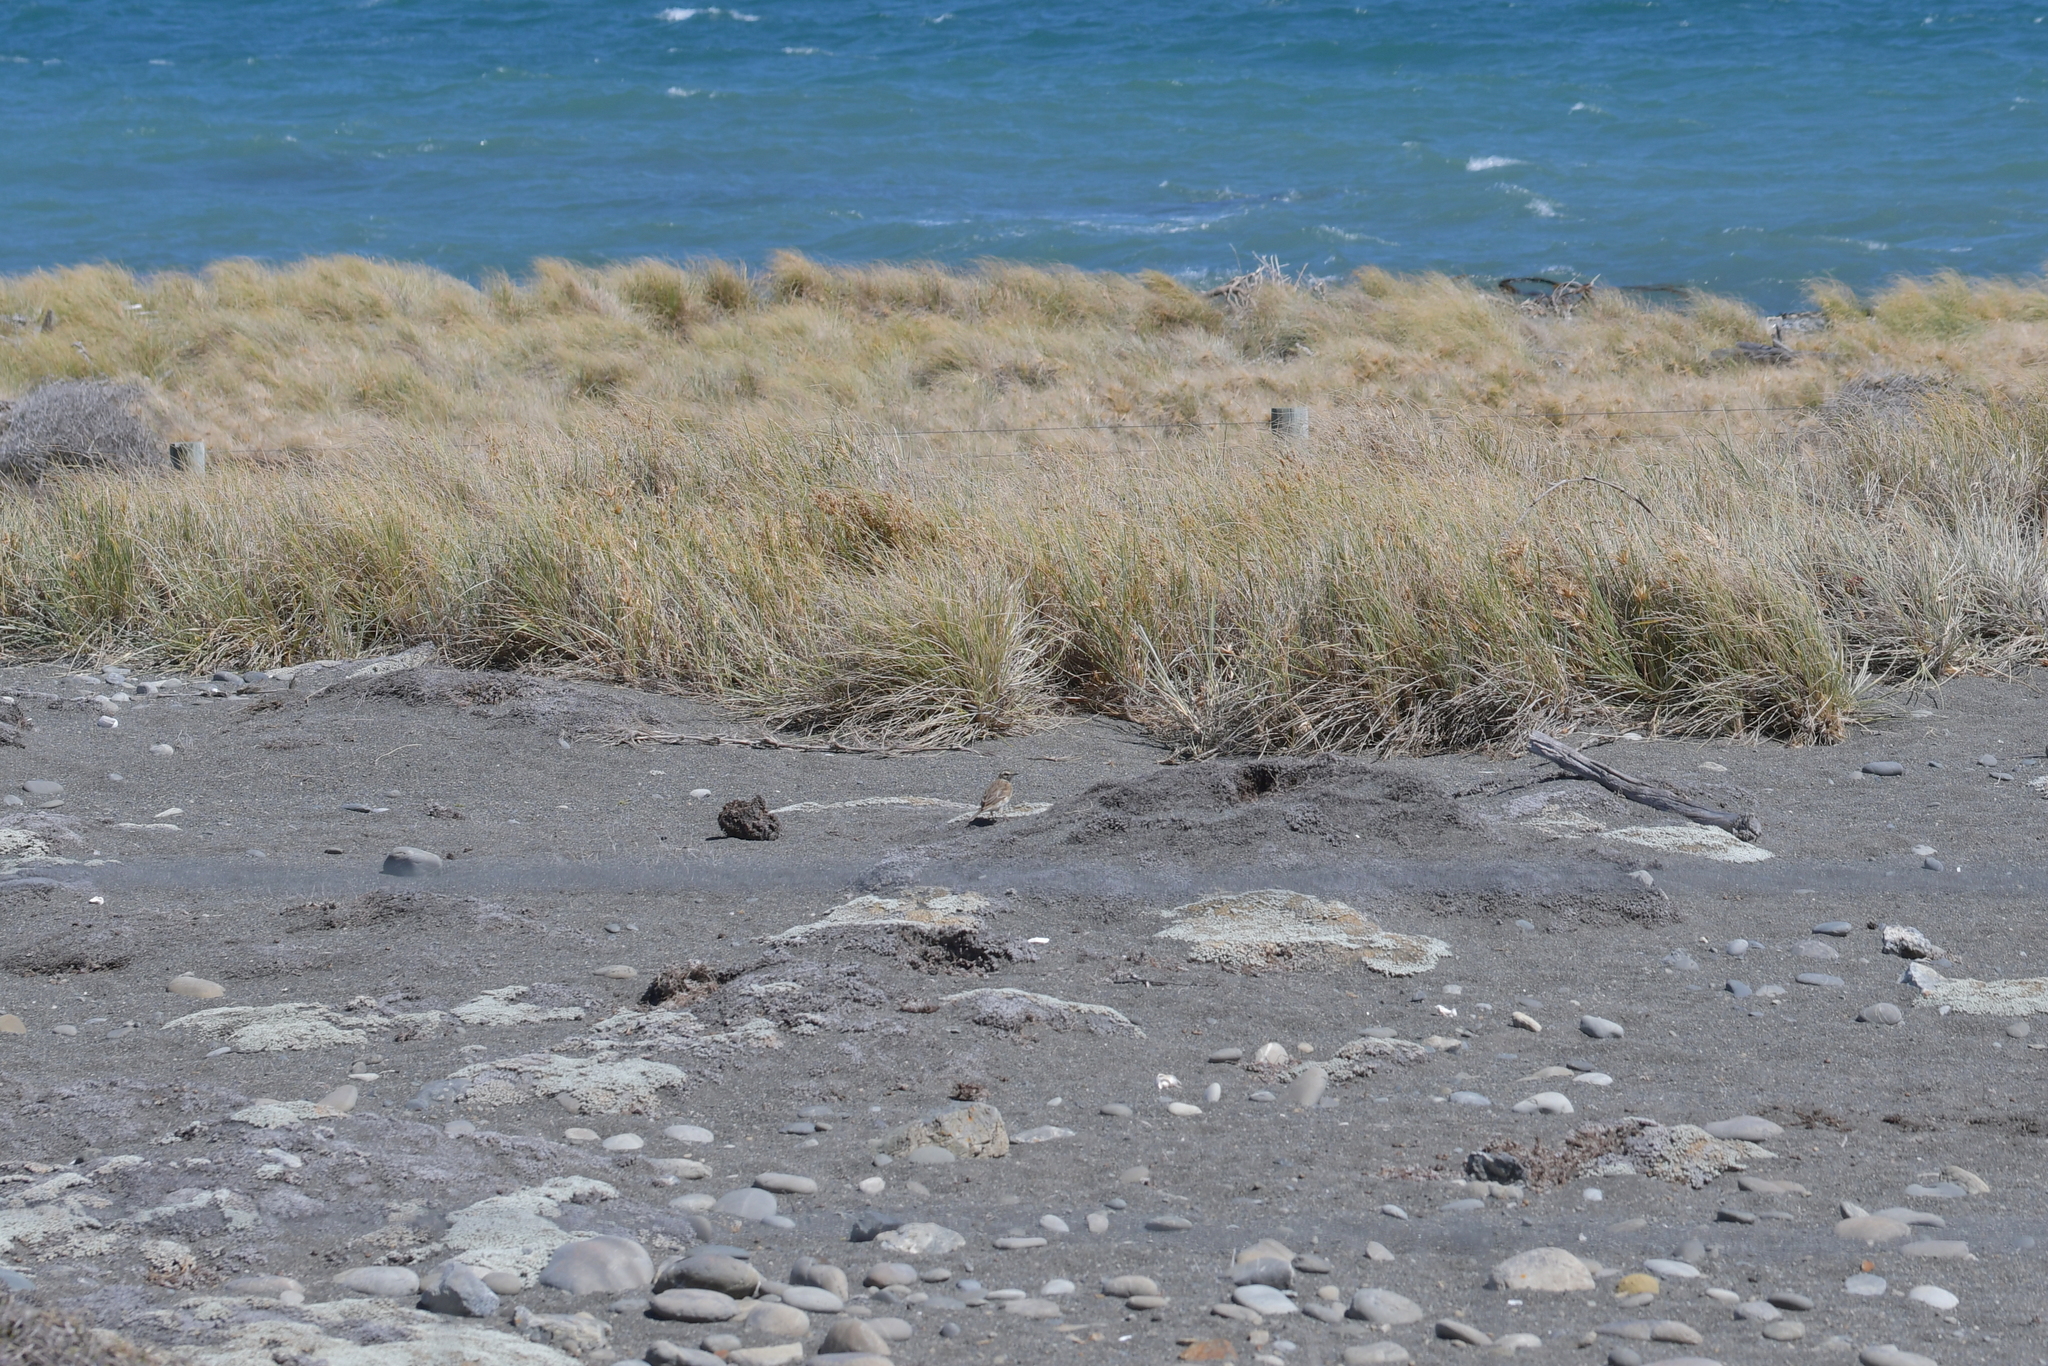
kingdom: Animalia
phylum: Chordata
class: Aves
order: Passeriformes
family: Motacillidae
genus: Anthus
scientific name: Anthus novaeseelandiae
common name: New zealand pipit
